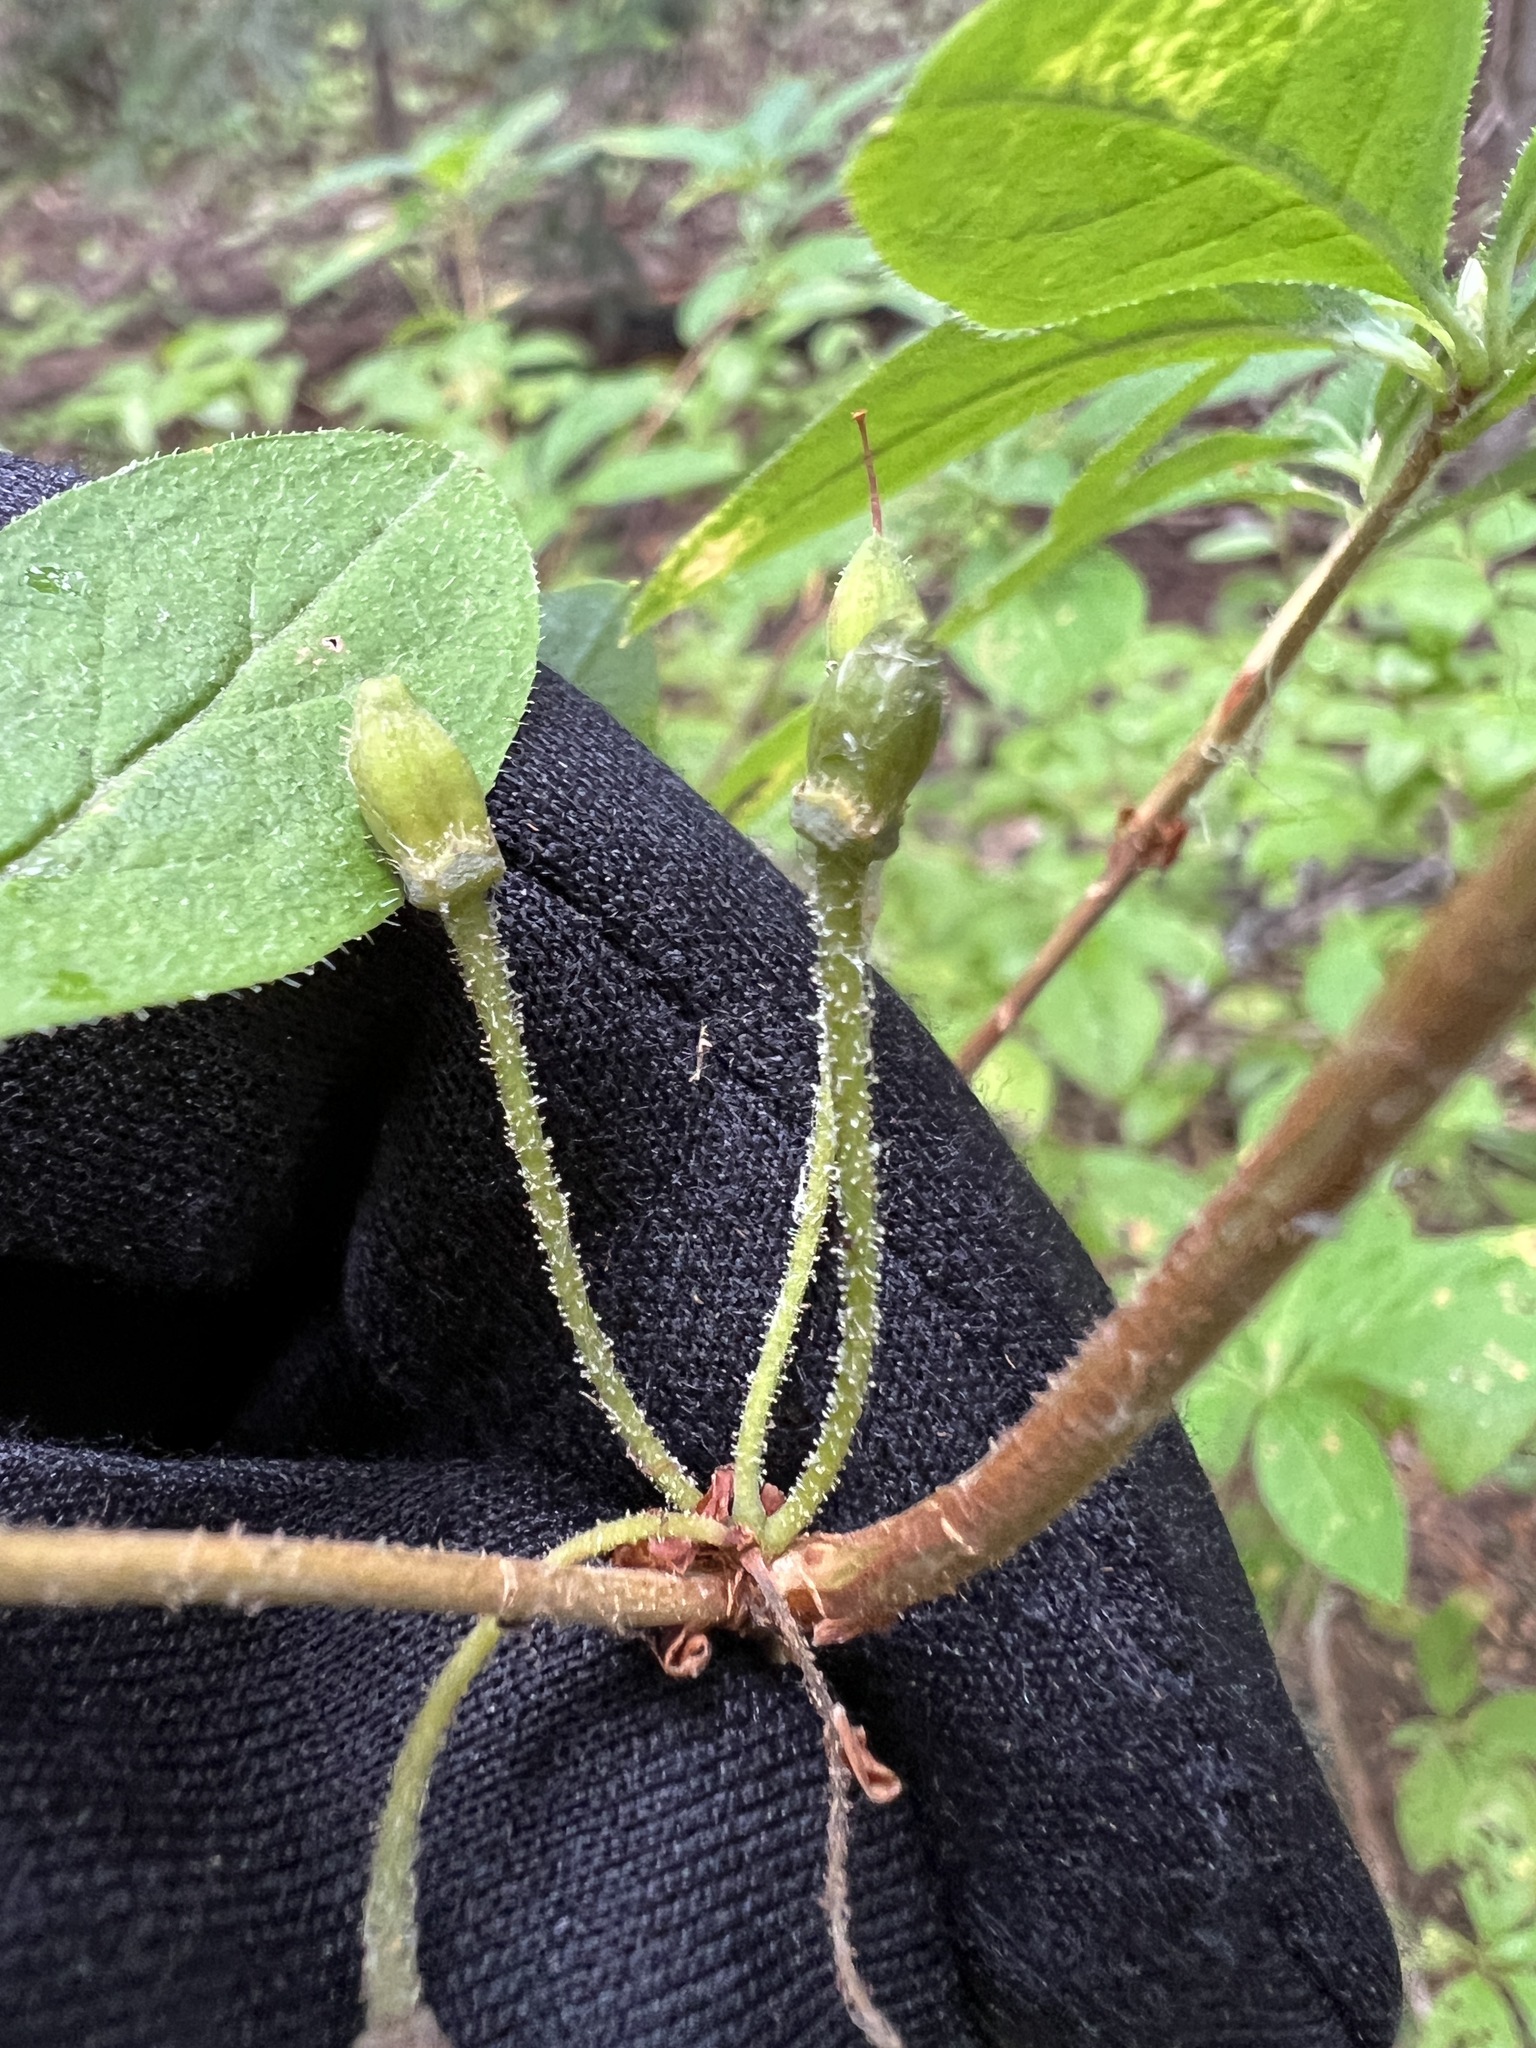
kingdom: Plantae
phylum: Tracheophyta
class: Magnoliopsida
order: Ericales
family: Ericaceae
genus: Rhododendron
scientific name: Rhododendron menziesii
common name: Pacific menziesia
